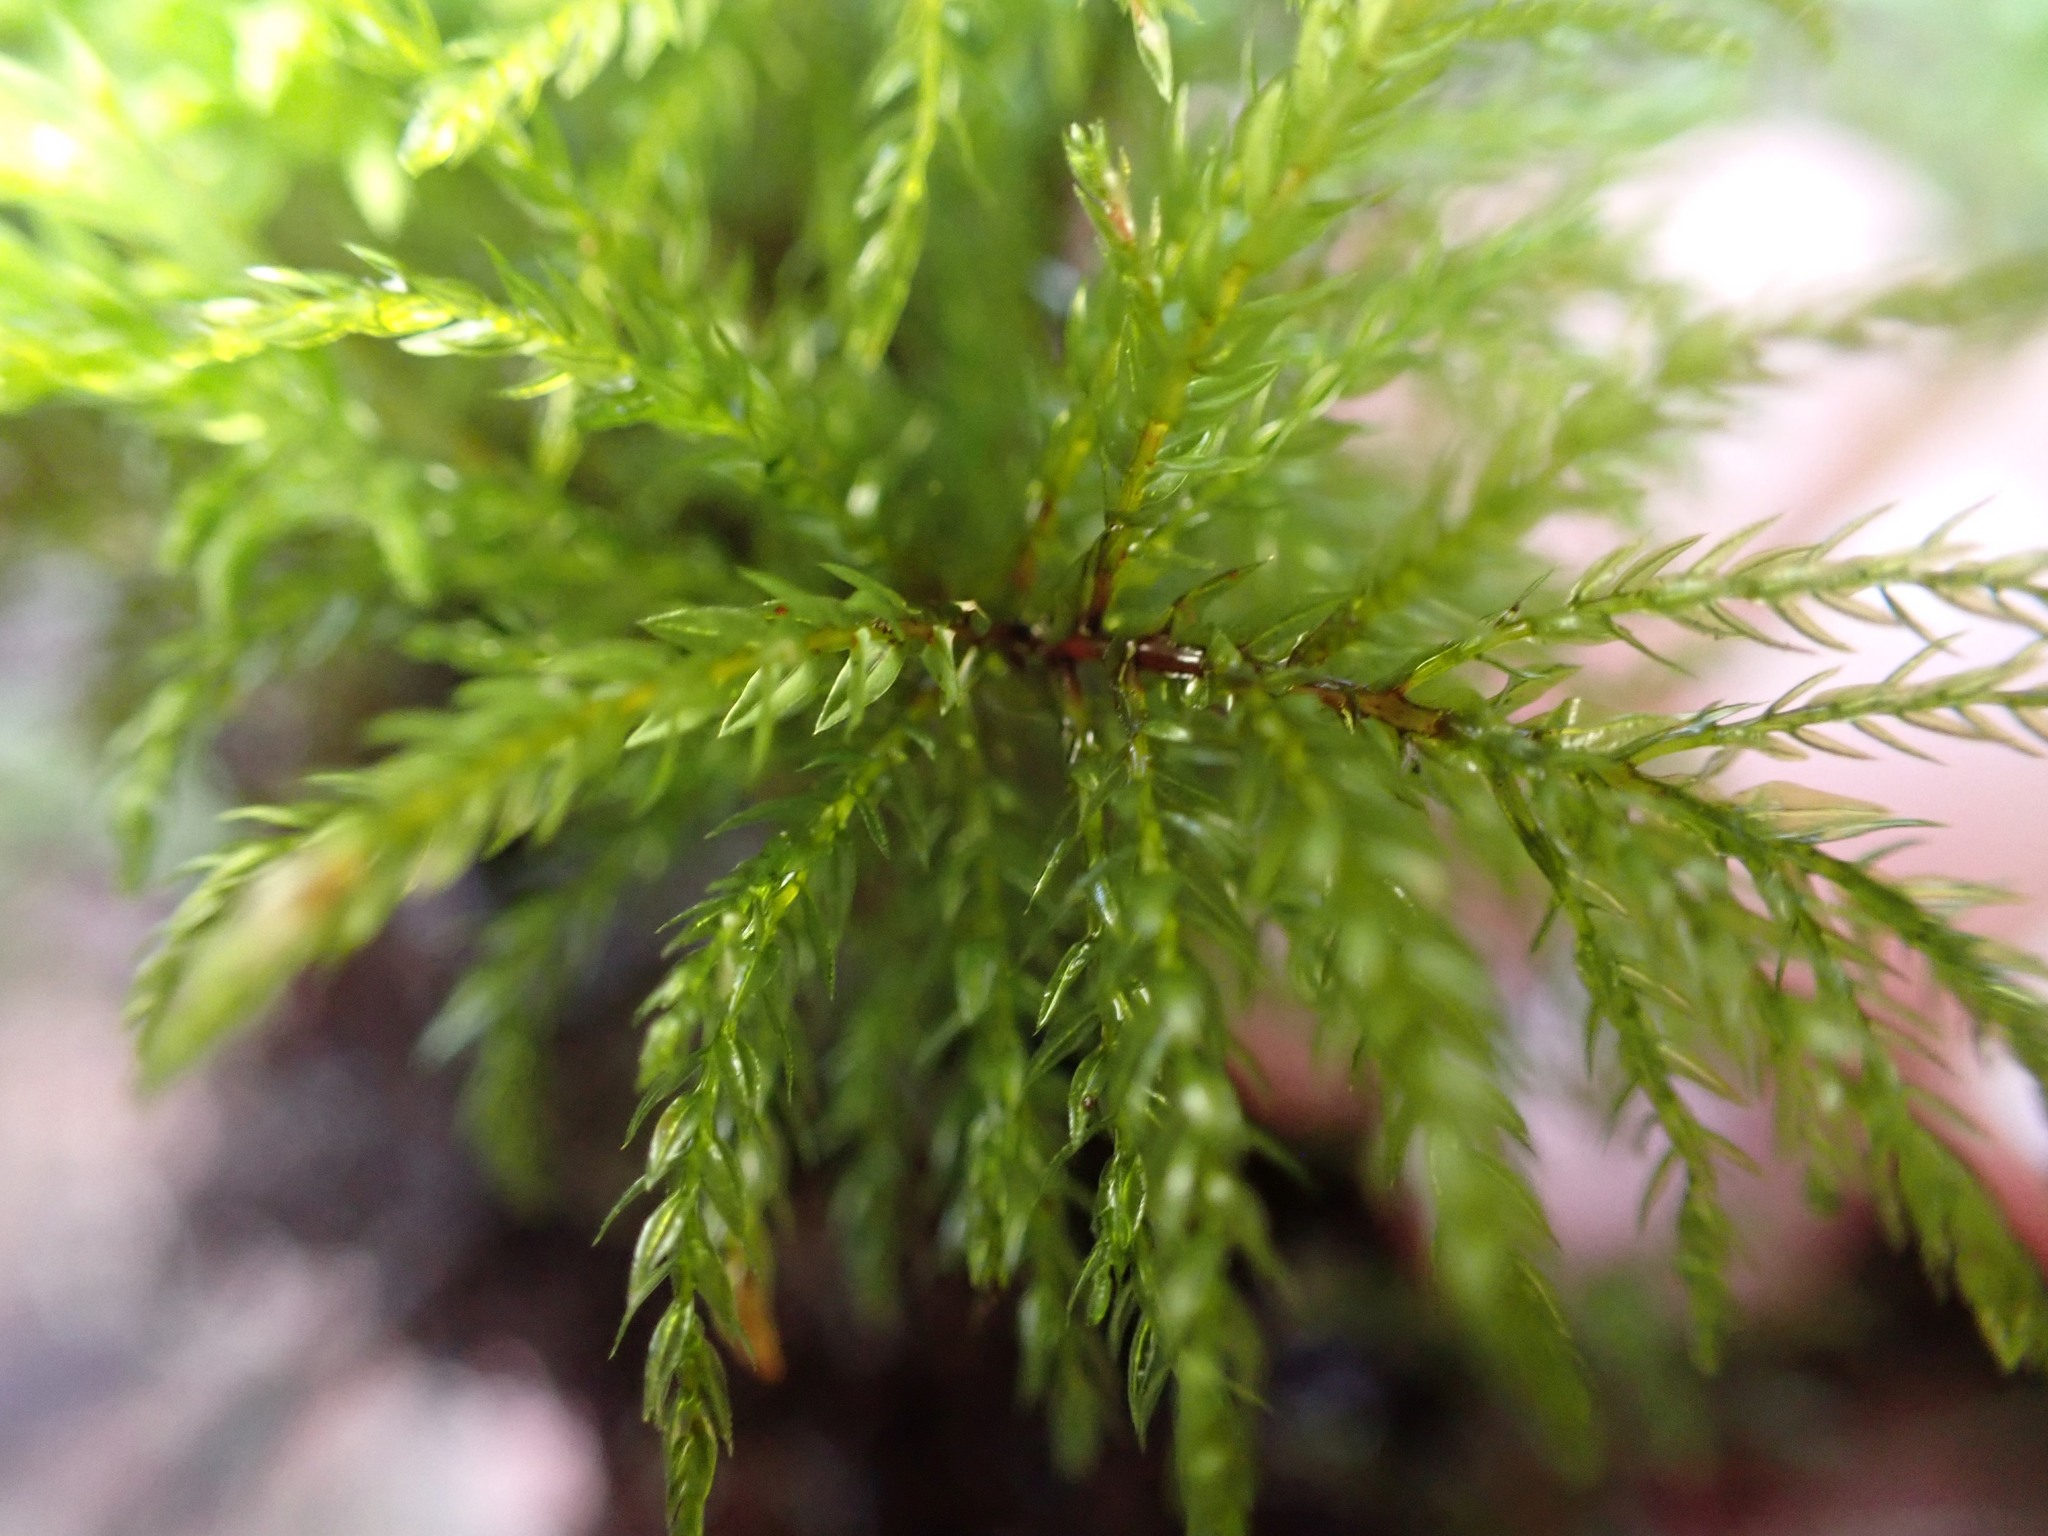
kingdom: Plantae
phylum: Bryophyta
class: Bryopsida
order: Bryales
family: Mniaceae
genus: Leucolepis
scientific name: Leucolepis acanthoneura
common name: Leucolepis umbrella moss
